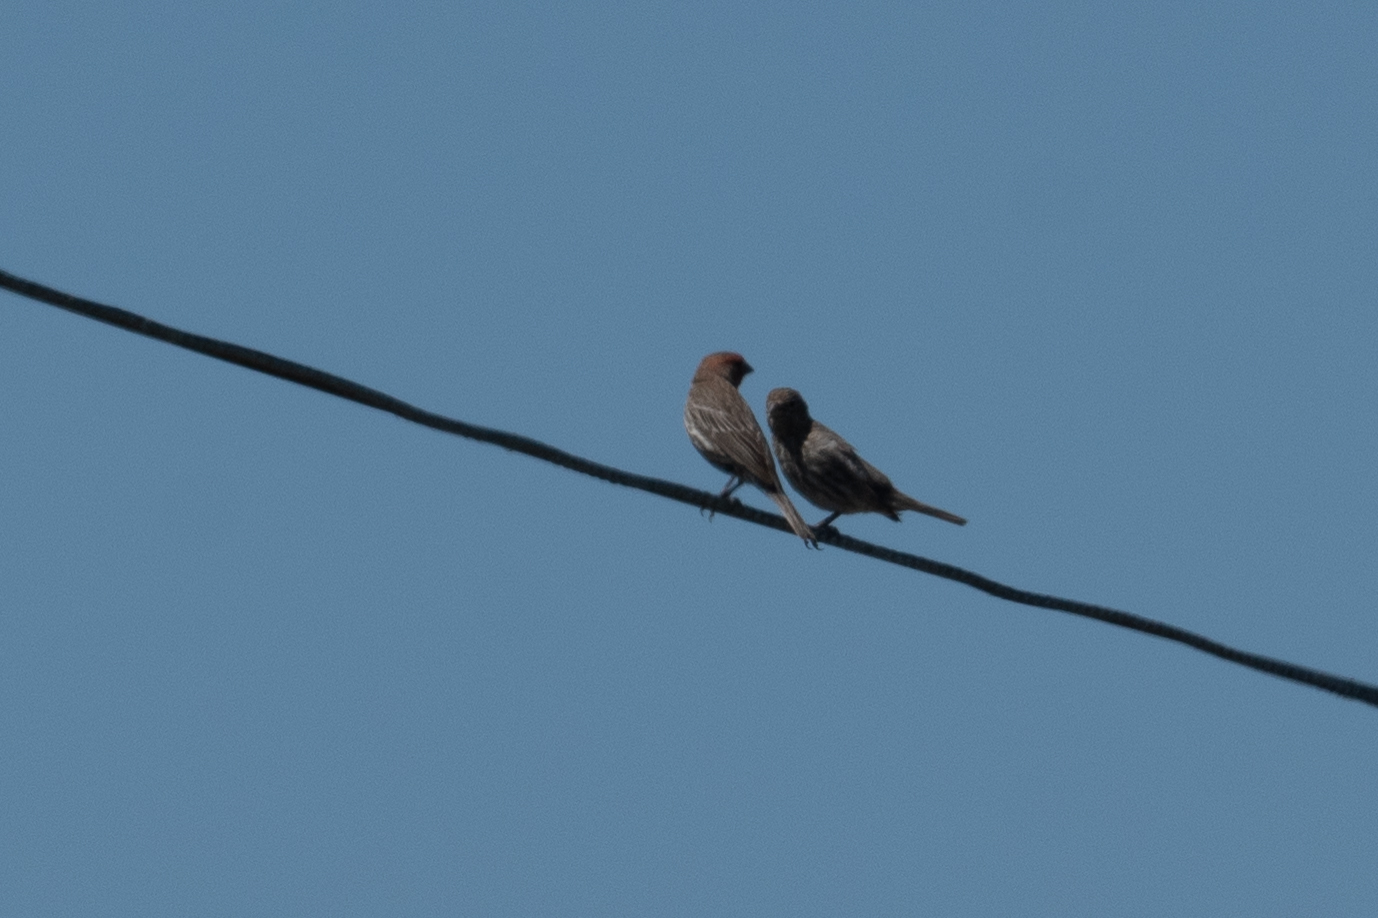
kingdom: Animalia
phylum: Chordata
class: Aves
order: Passeriformes
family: Fringillidae
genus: Haemorhous
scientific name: Haemorhous mexicanus
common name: House finch
